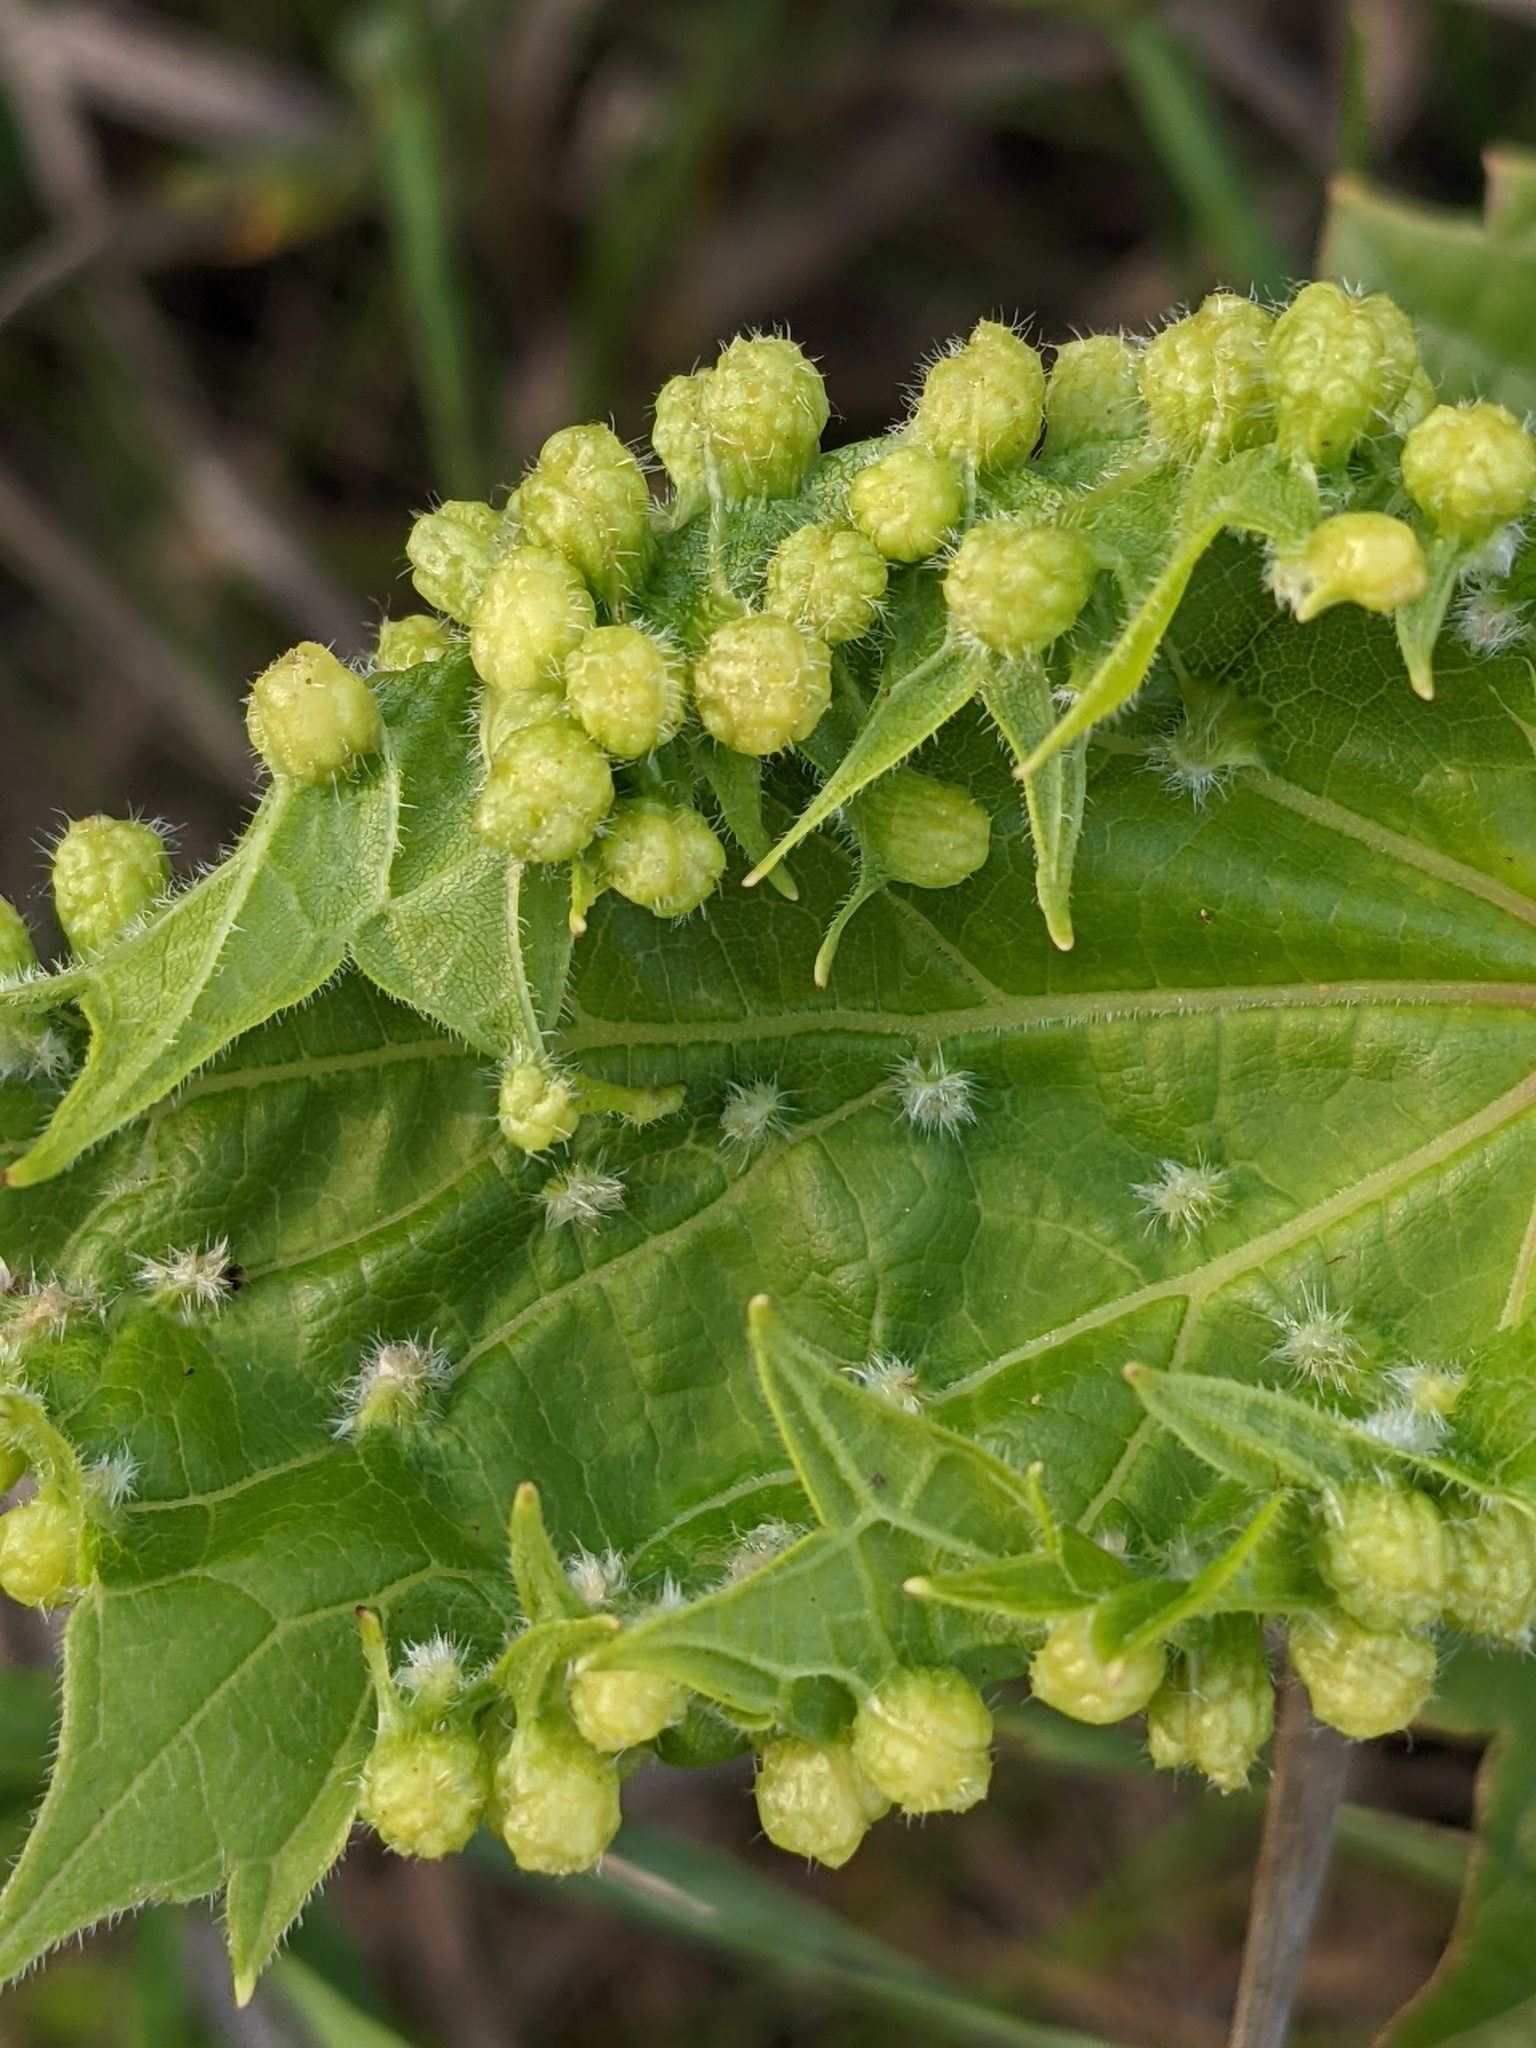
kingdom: Animalia
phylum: Arthropoda
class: Insecta
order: Hemiptera
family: Phylloxeridae
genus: Daktulosphaira
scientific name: Daktulosphaira vitifoliae
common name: Grape phylloxera
